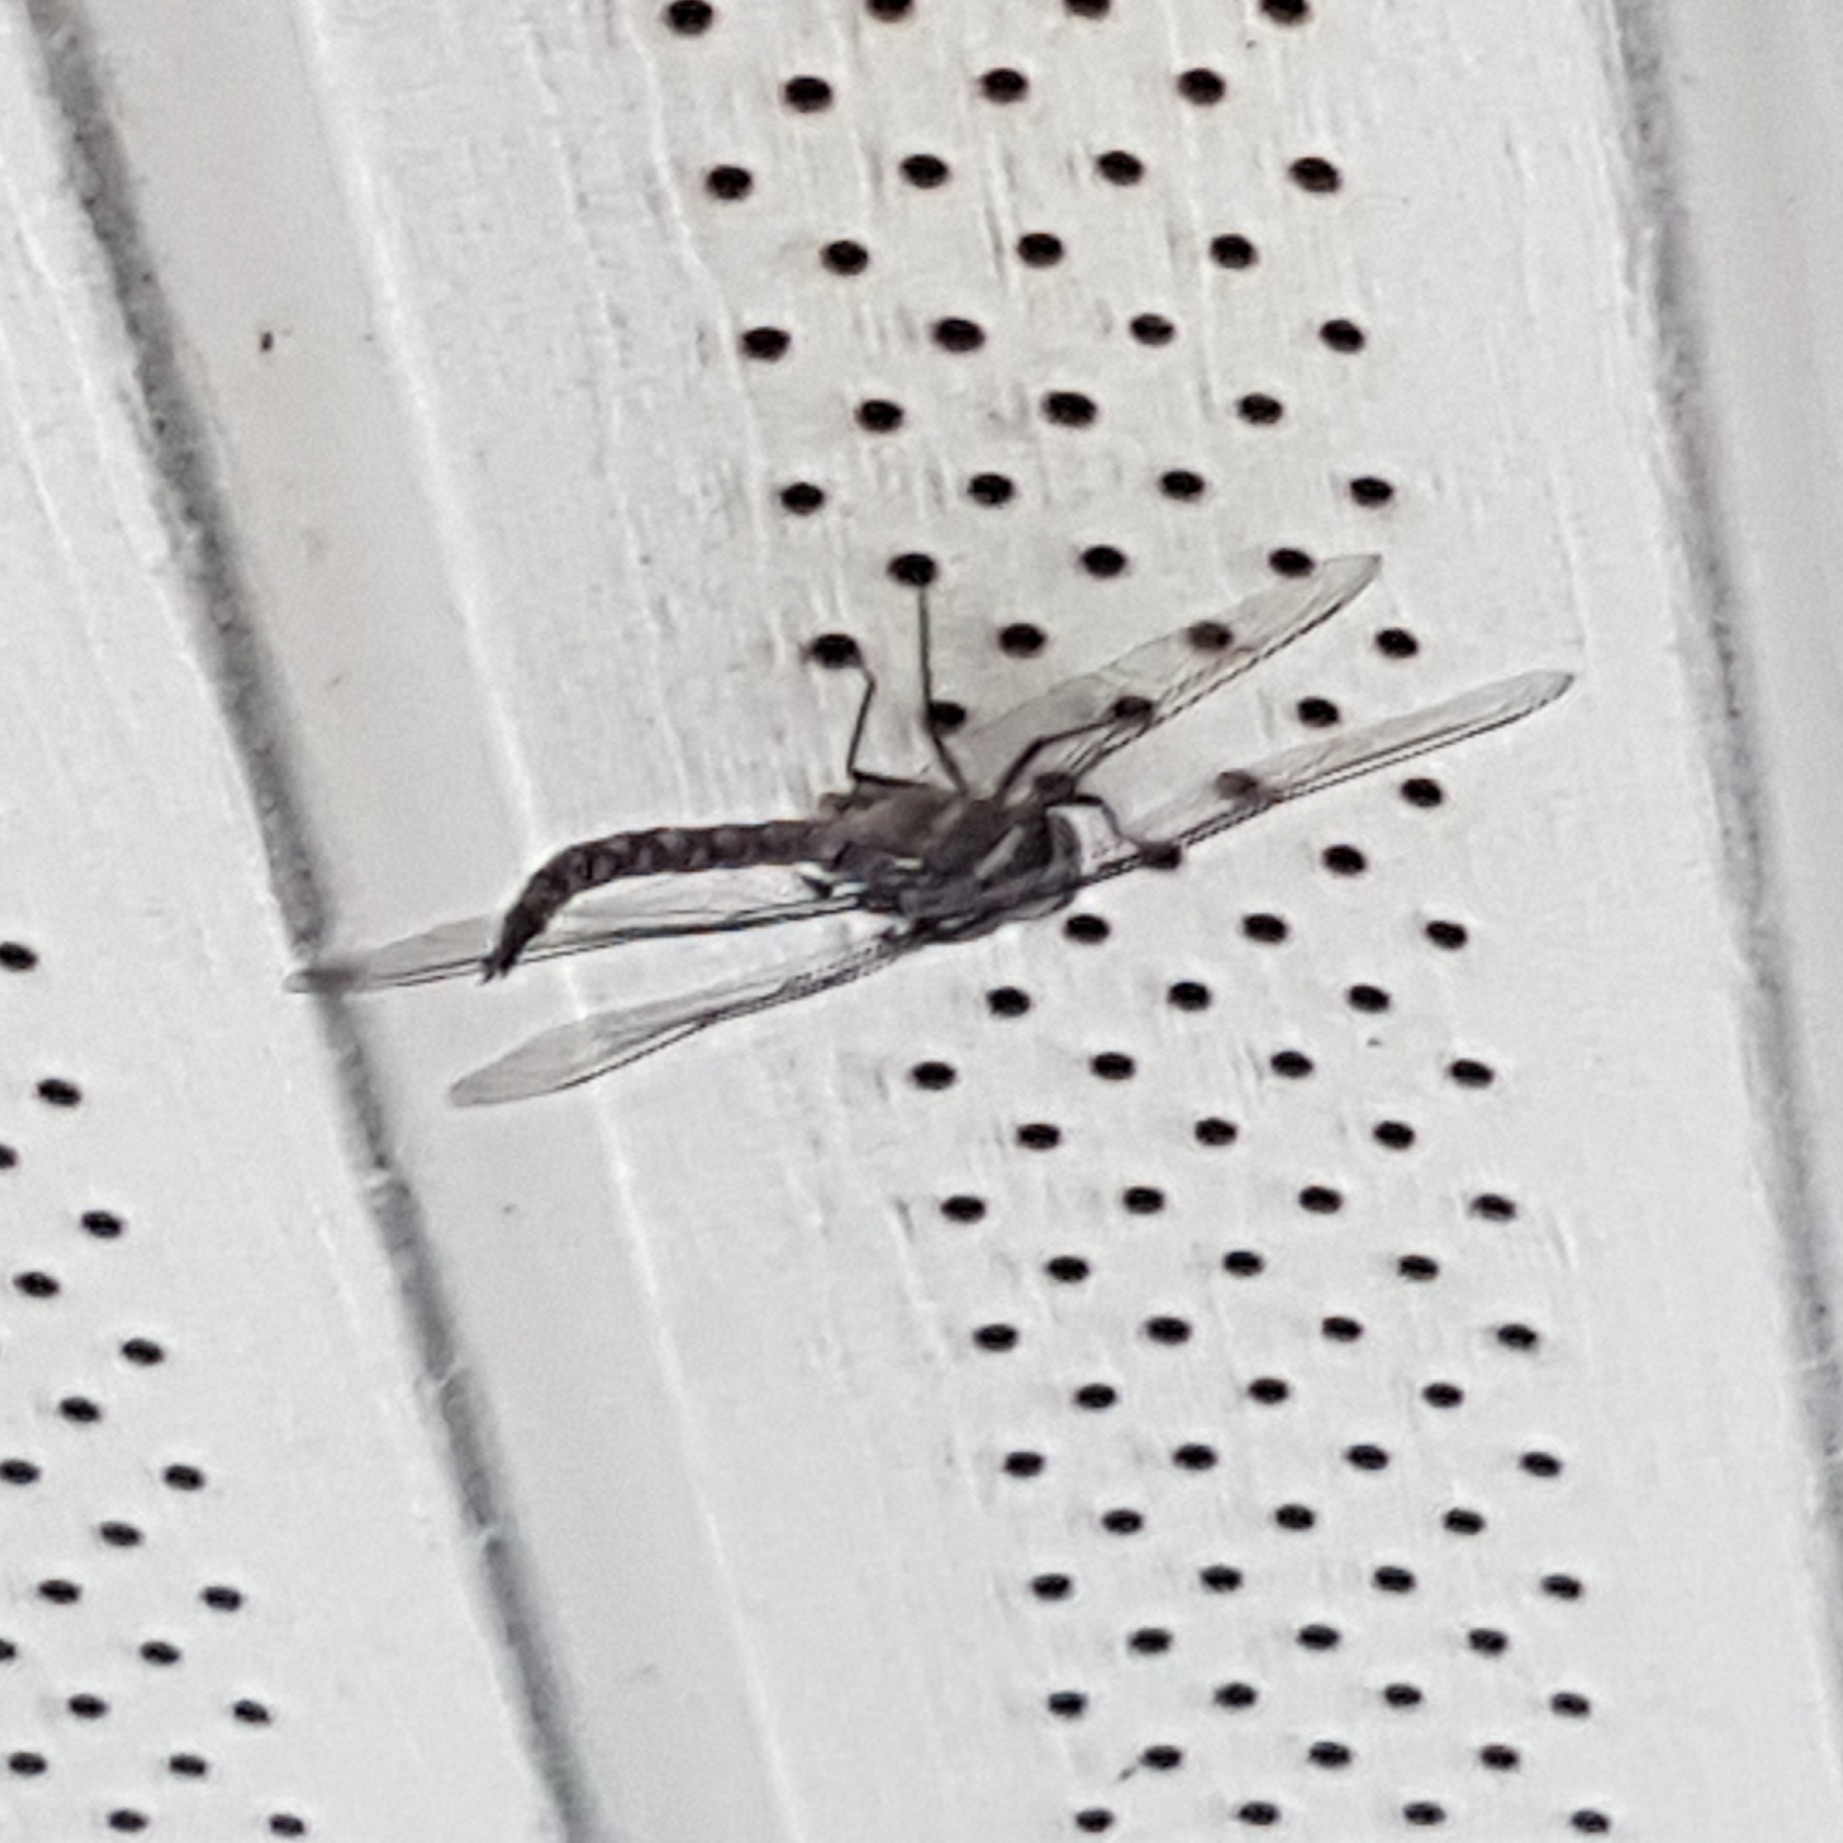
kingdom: Animalia
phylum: Arthropoda
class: Insecta
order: Odonata
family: Aeshnidae
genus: Rhionaeschna
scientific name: Rhionaeschna multicolor
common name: Blue-eyed darner
